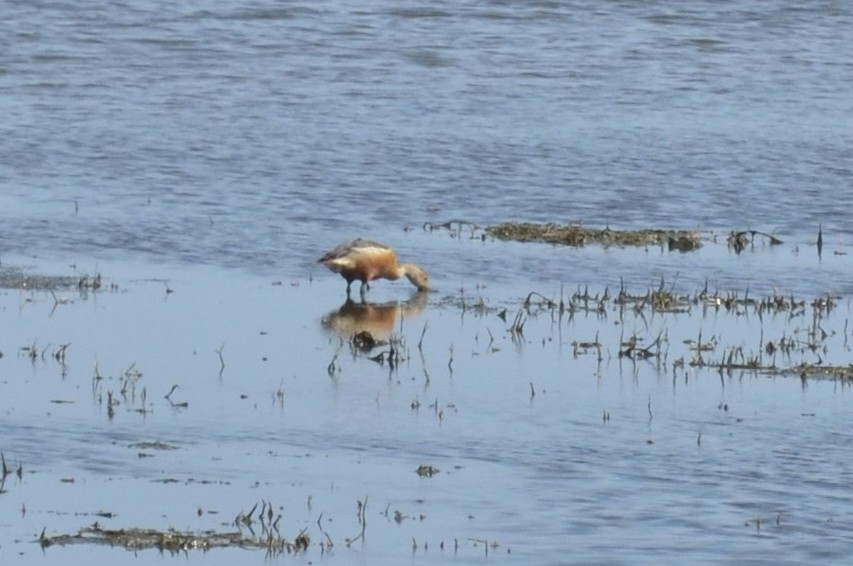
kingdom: Animalia
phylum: Chordata
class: Aves
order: Anseriformes
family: Anatidae
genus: Dendrocygna
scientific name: Dendrocygna javanica
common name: Lesser whistling-duck
